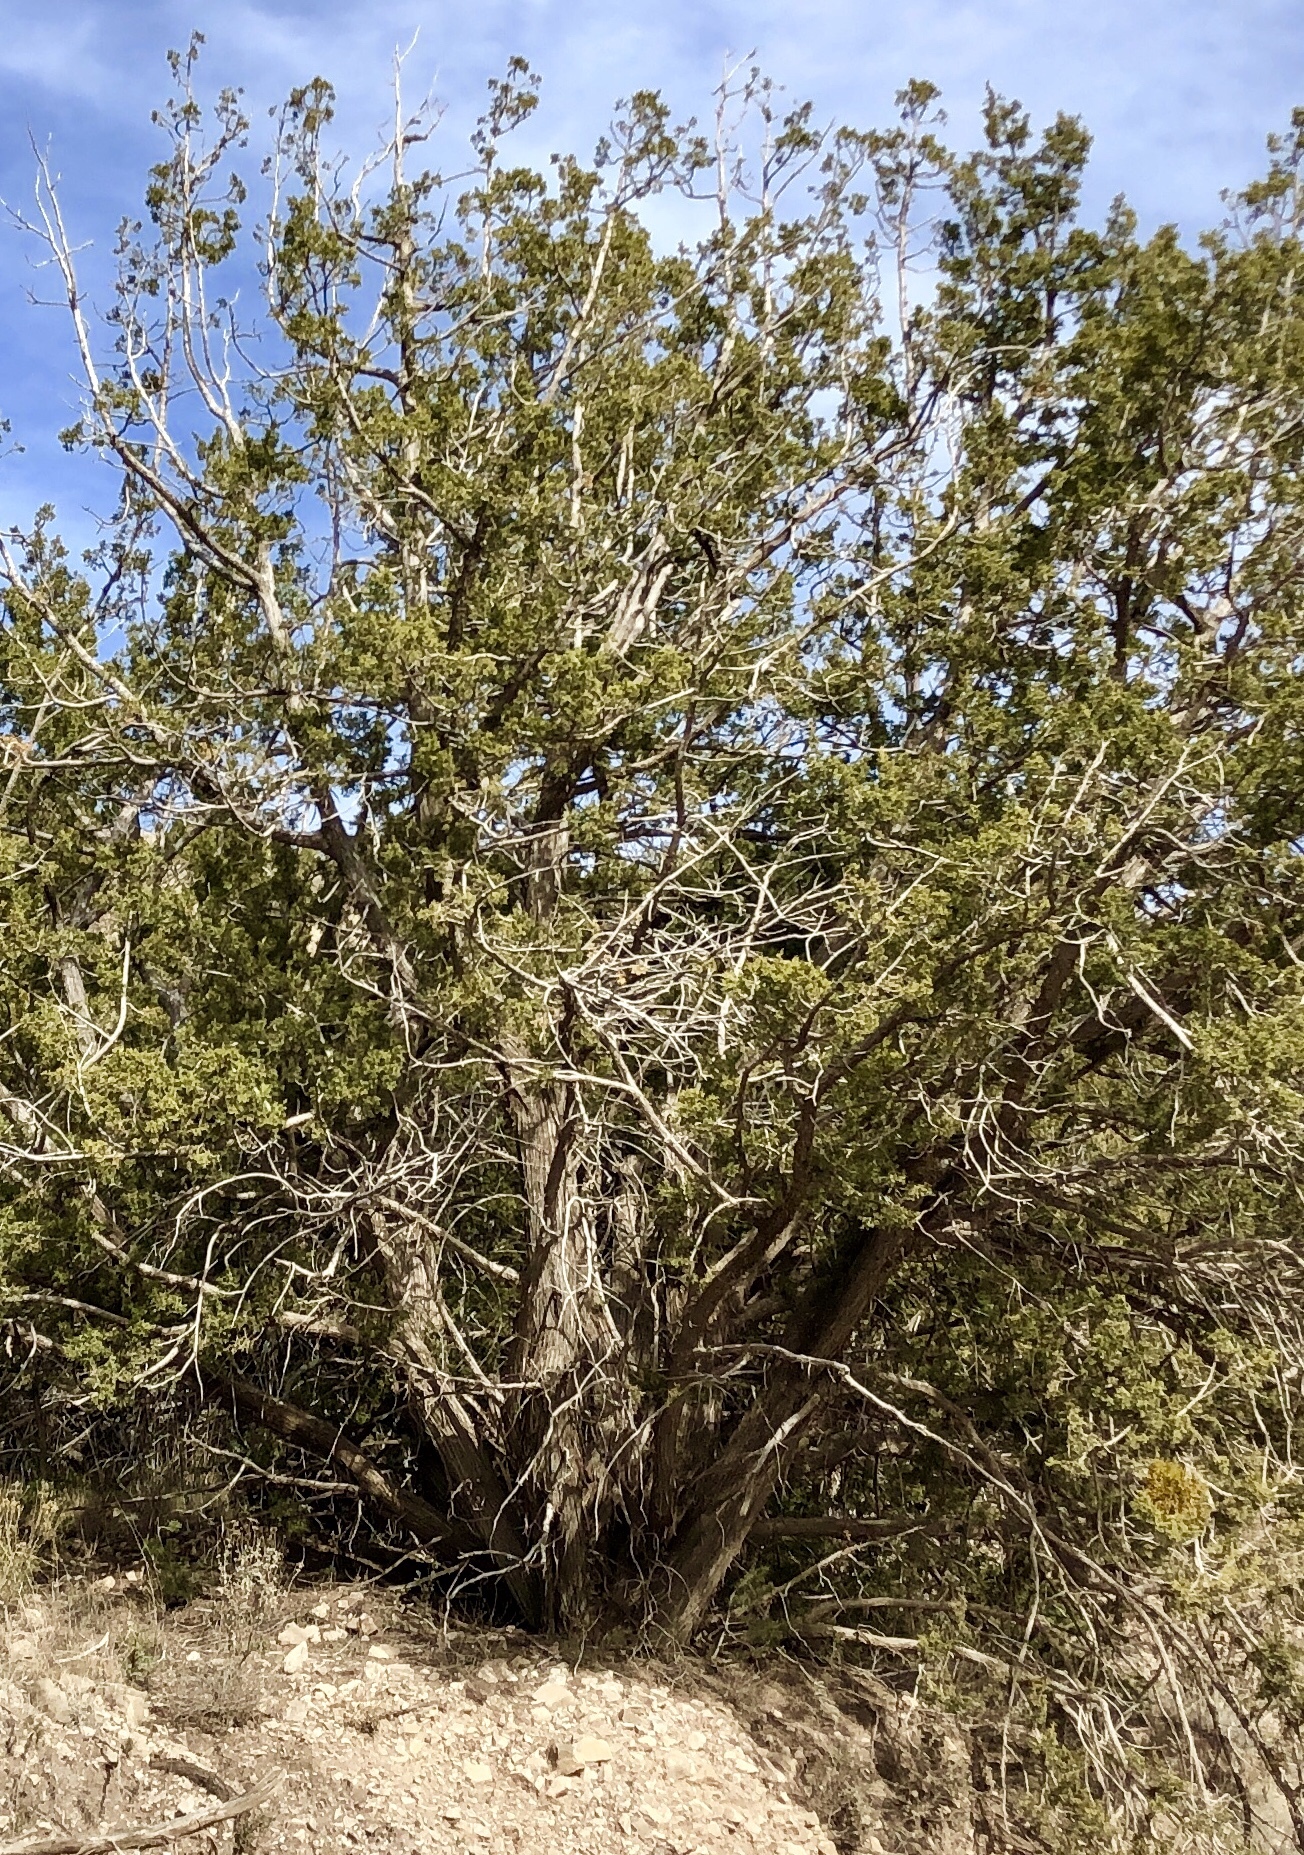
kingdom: Plantae
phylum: Tracheophyta
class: Pinopsida
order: Pinales
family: Cupressaceae
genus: Juniperus
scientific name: Juniperus monosperma
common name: One-seed juniper
